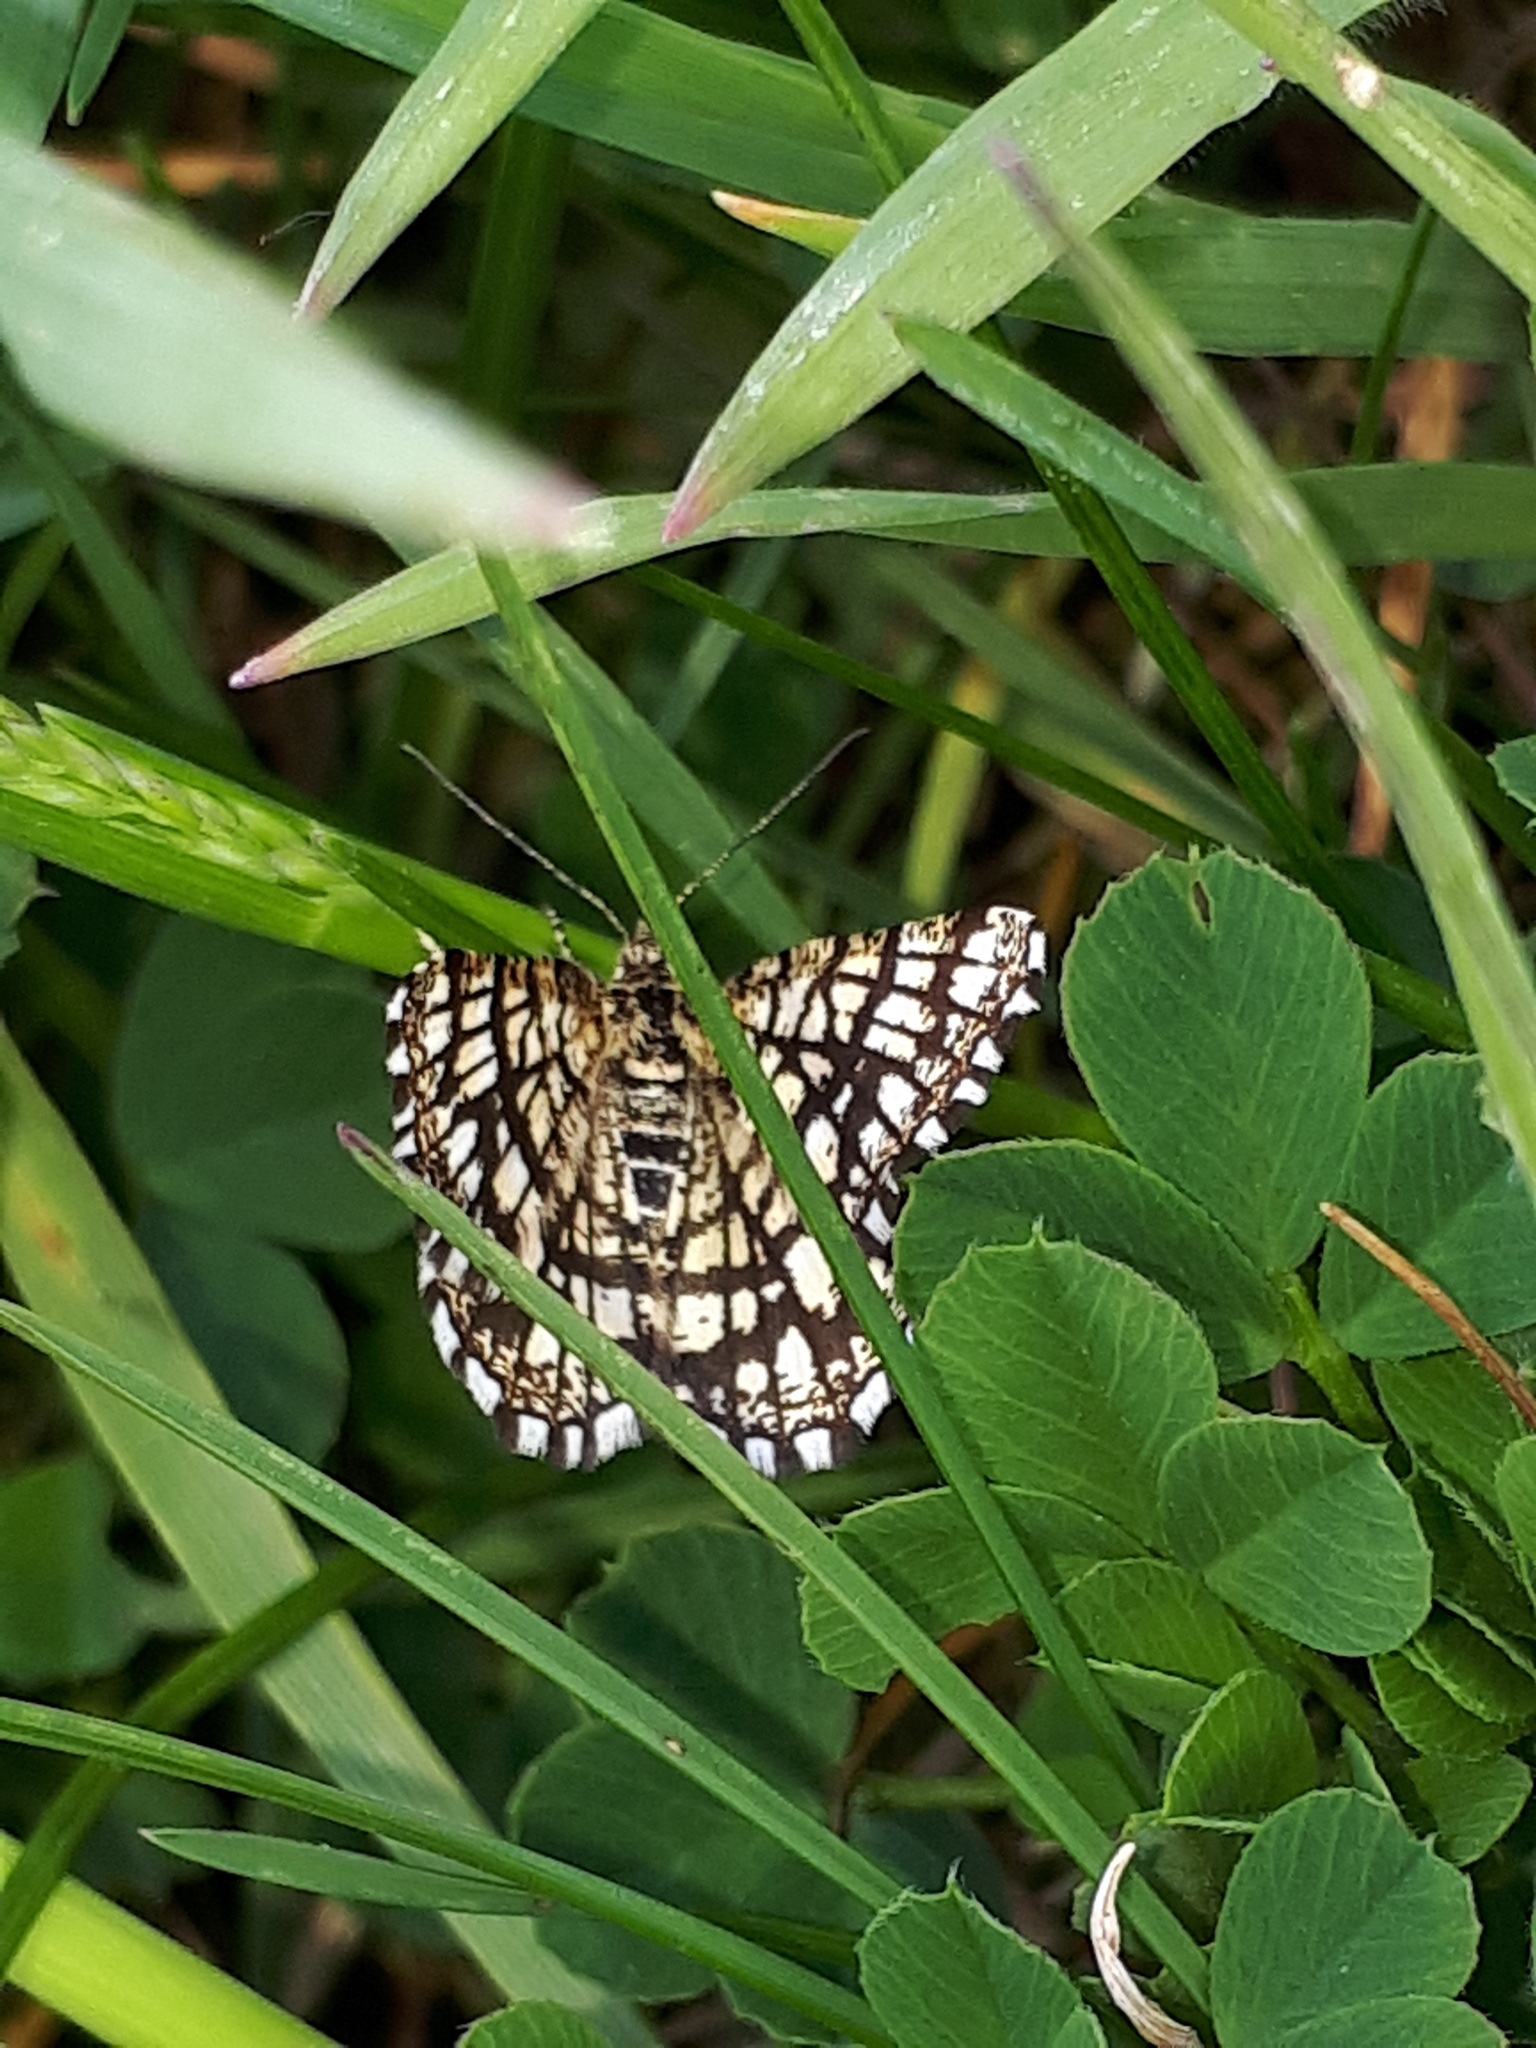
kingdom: Animalia
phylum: Arthropoda
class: Insecta
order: Lepidoptera
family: Geometridae
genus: Chiasmia
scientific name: Chiasmia clathrata
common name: Latticed heath
